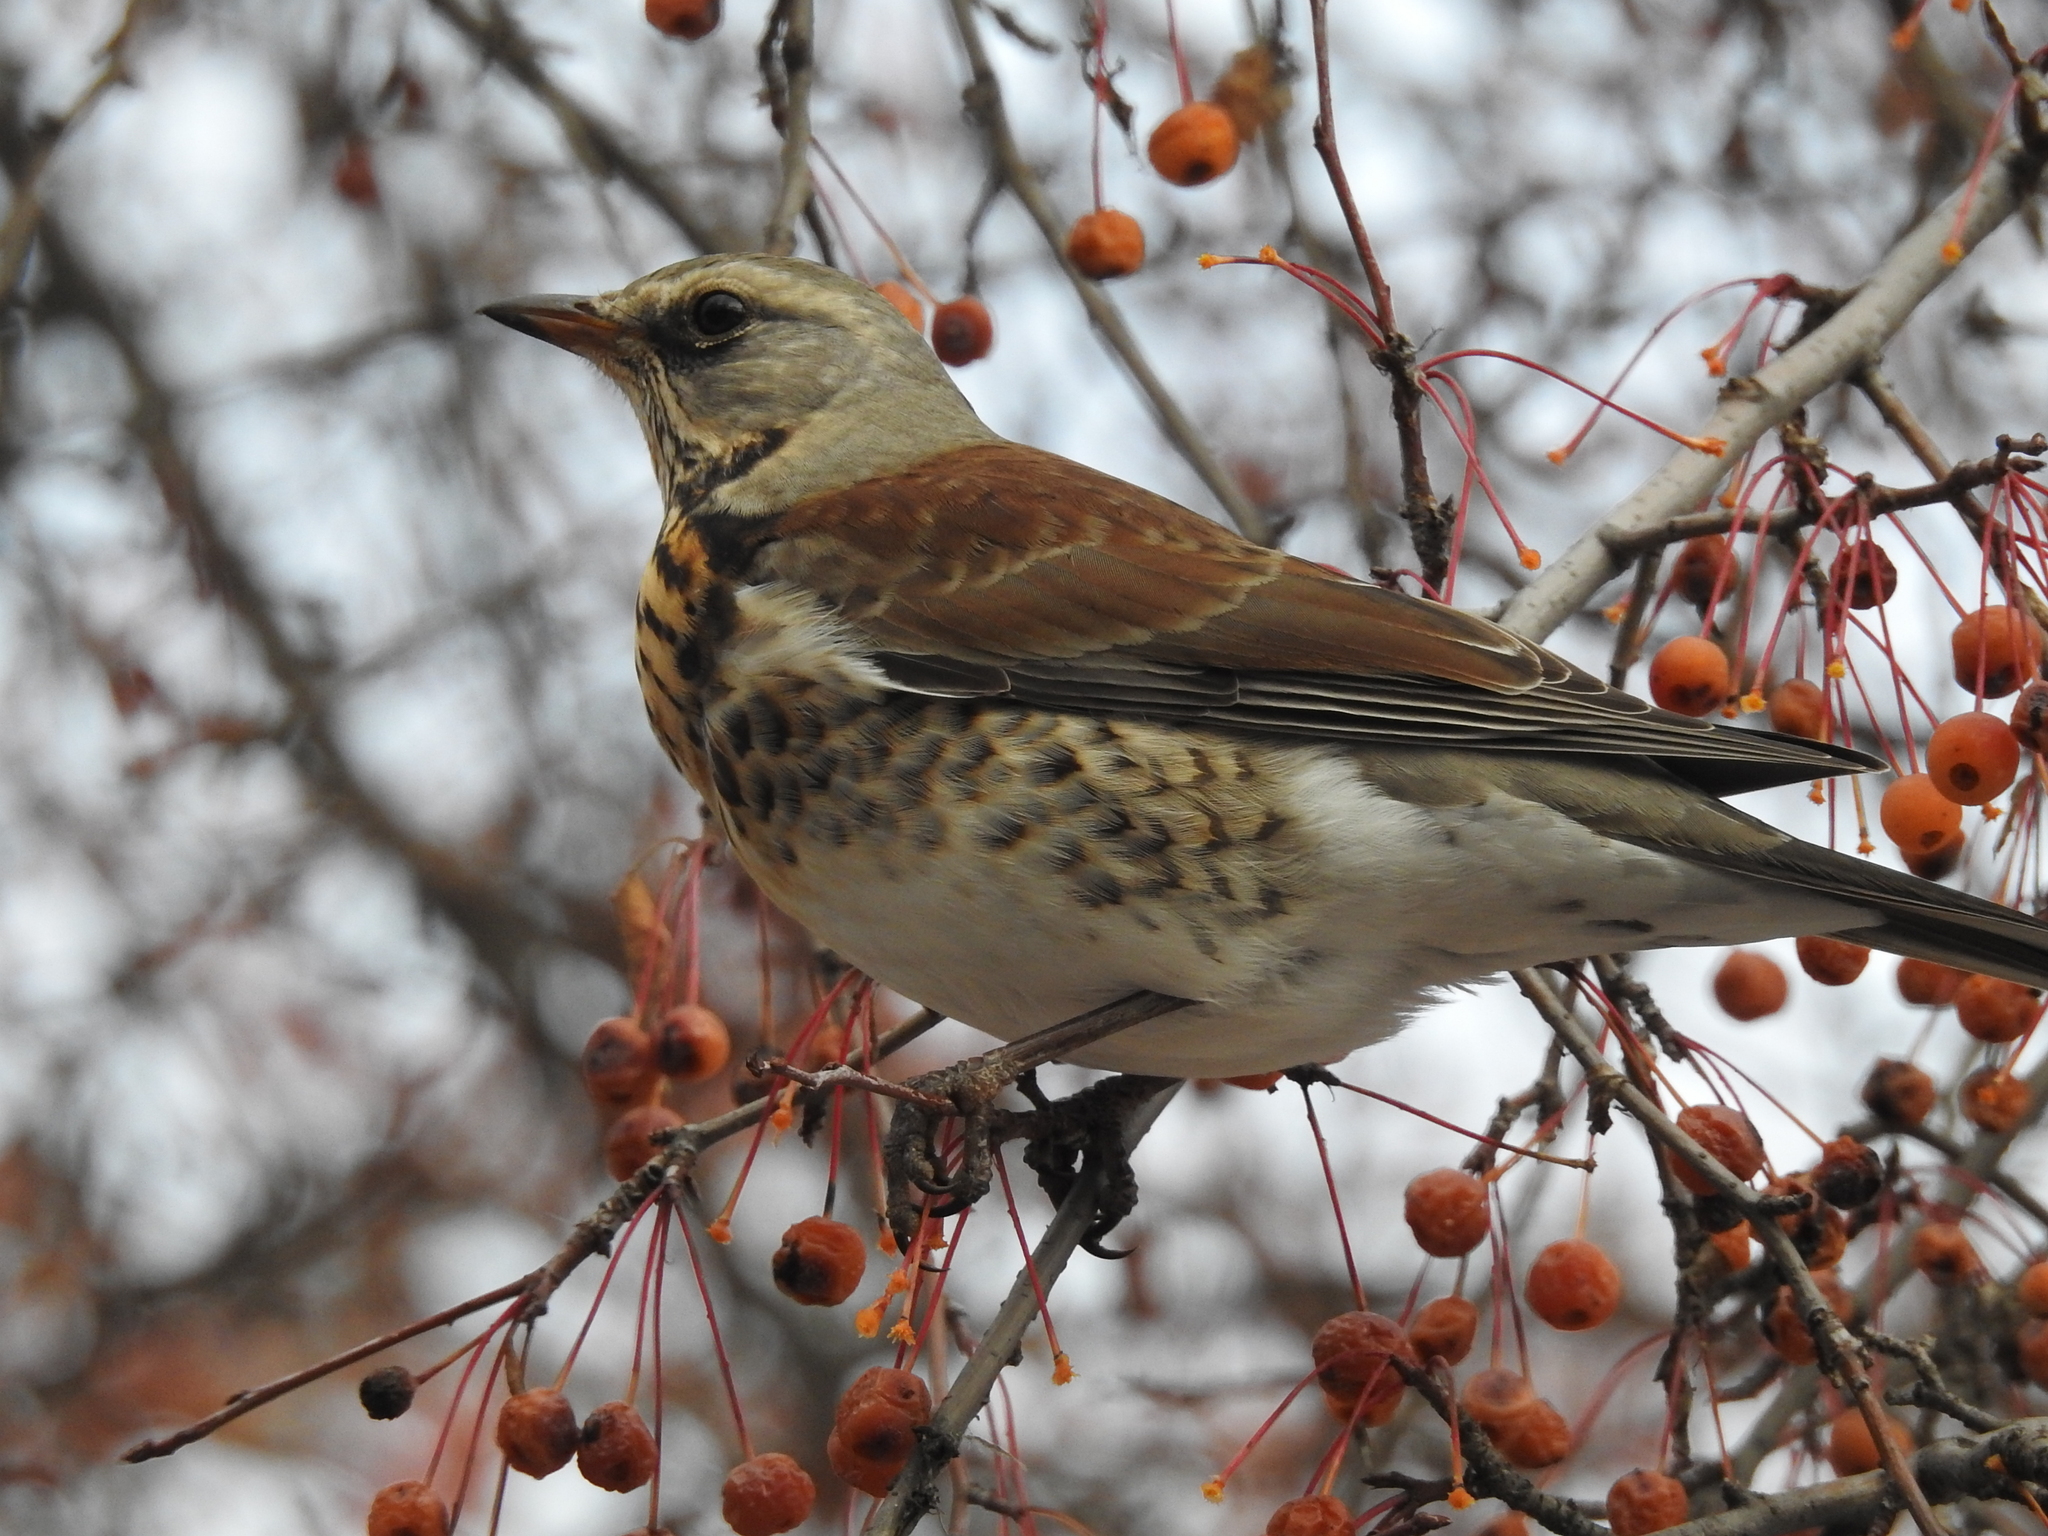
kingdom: Animalia
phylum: Chordata
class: Aves
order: Passeriformes
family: Turdidae
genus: Turdus
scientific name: Turdus pilaris
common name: Fieldfare
